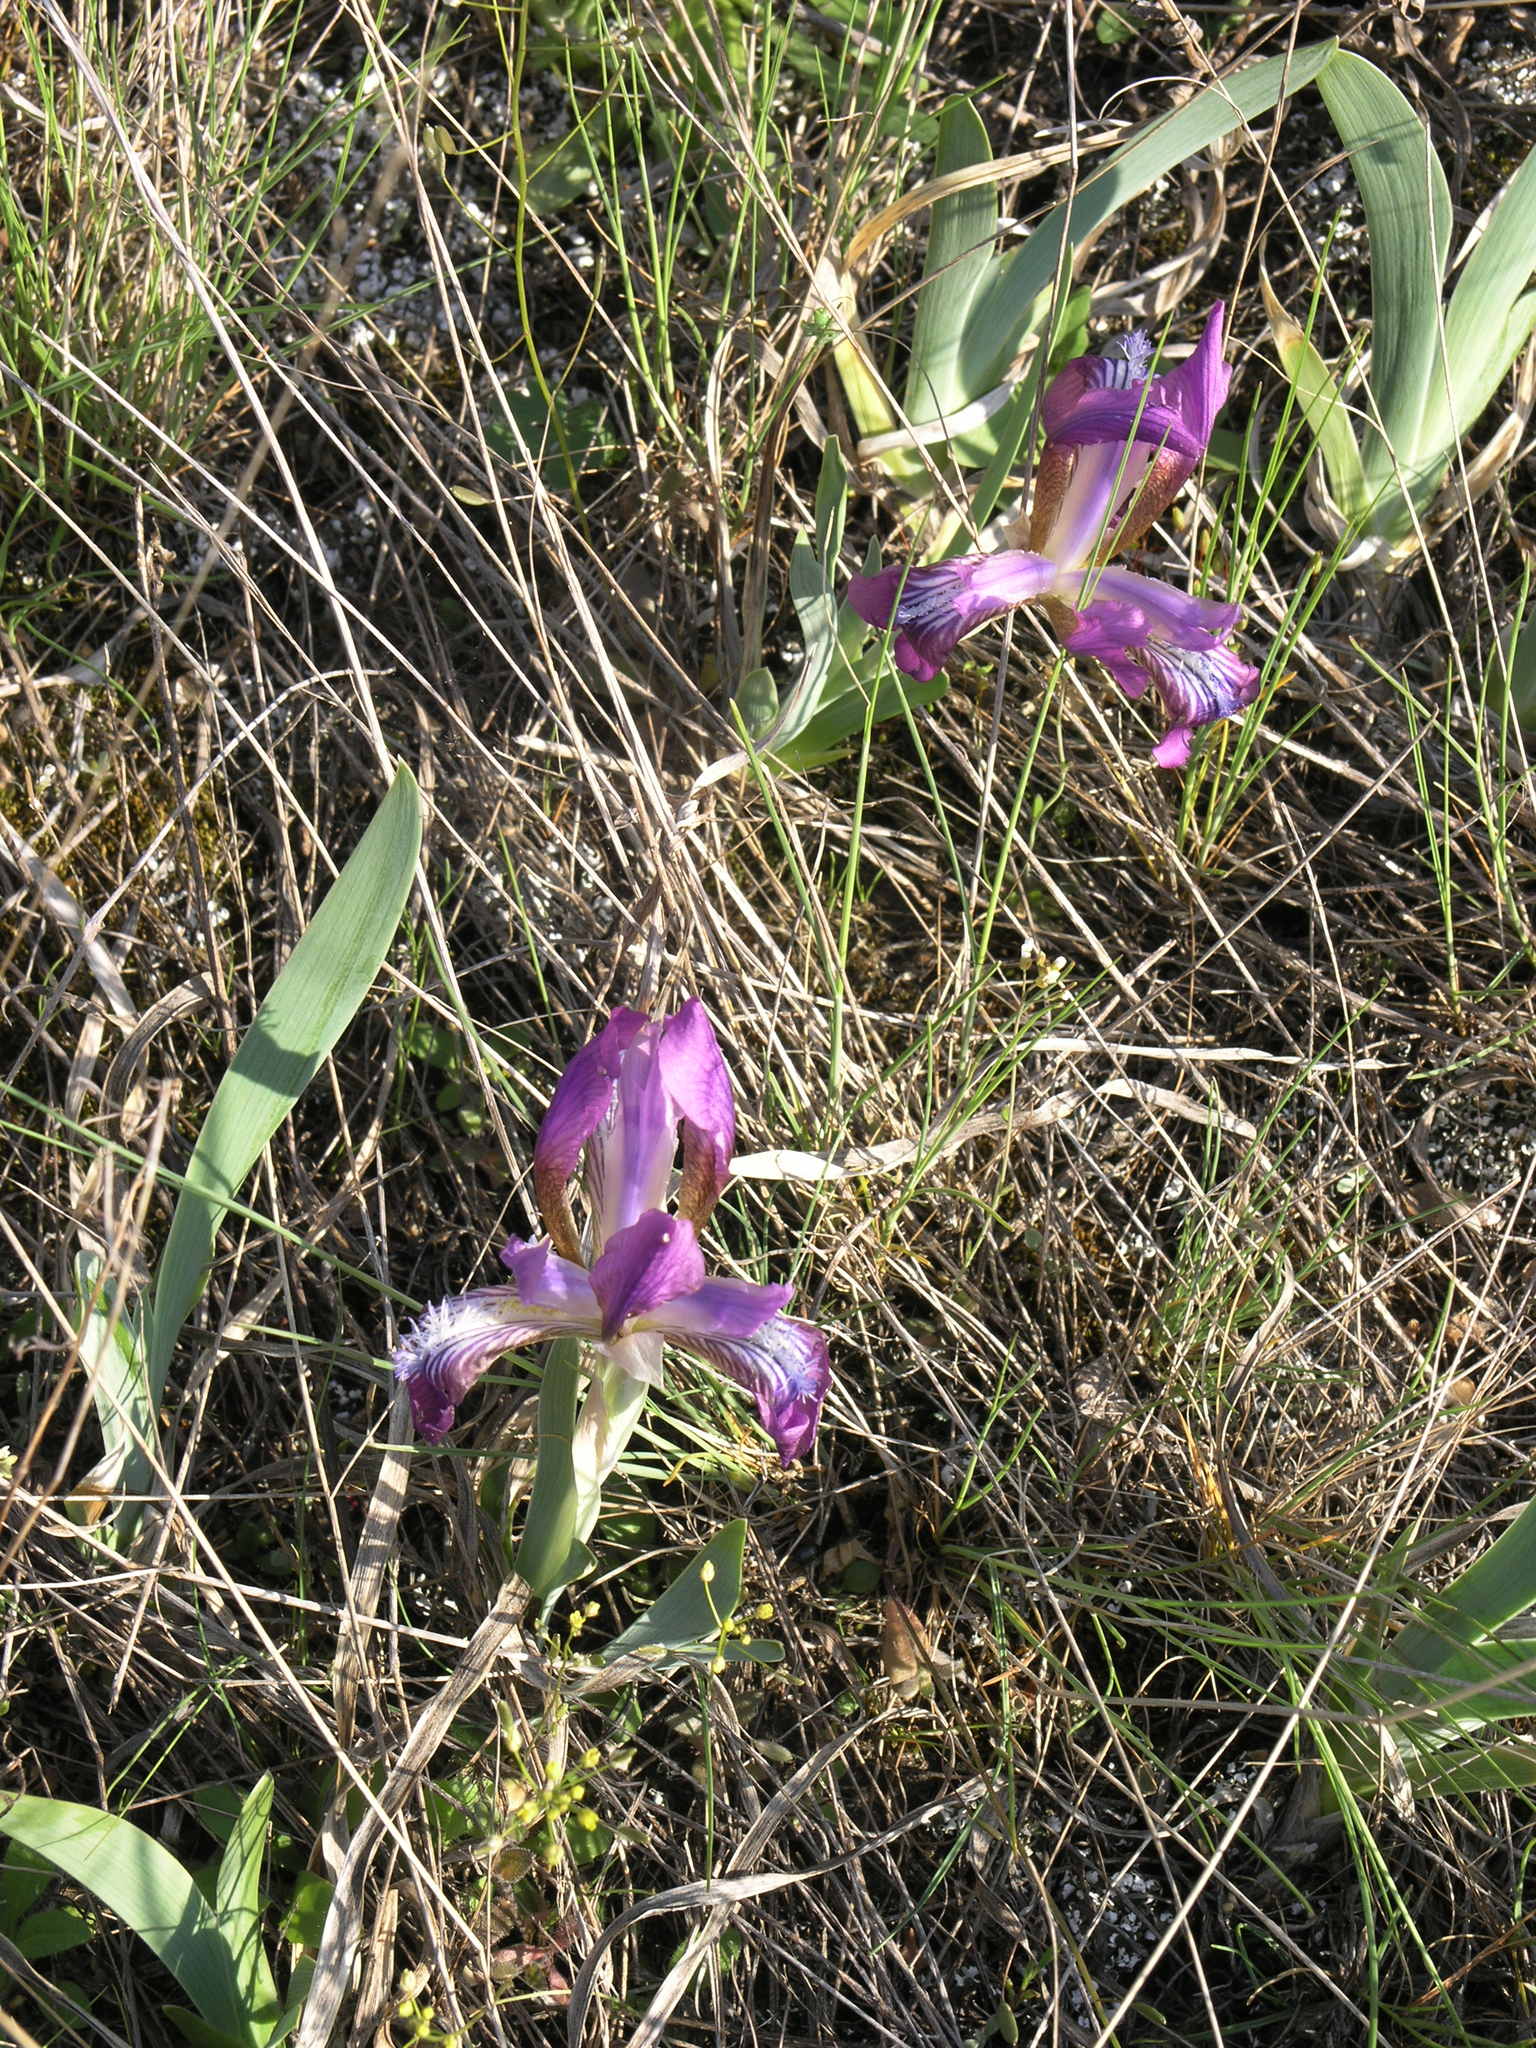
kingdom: Plantae
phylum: Tracheophyta
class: Liliopsida
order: Asparagales
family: Iridaceae
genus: Iris
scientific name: Iris glaucescens
